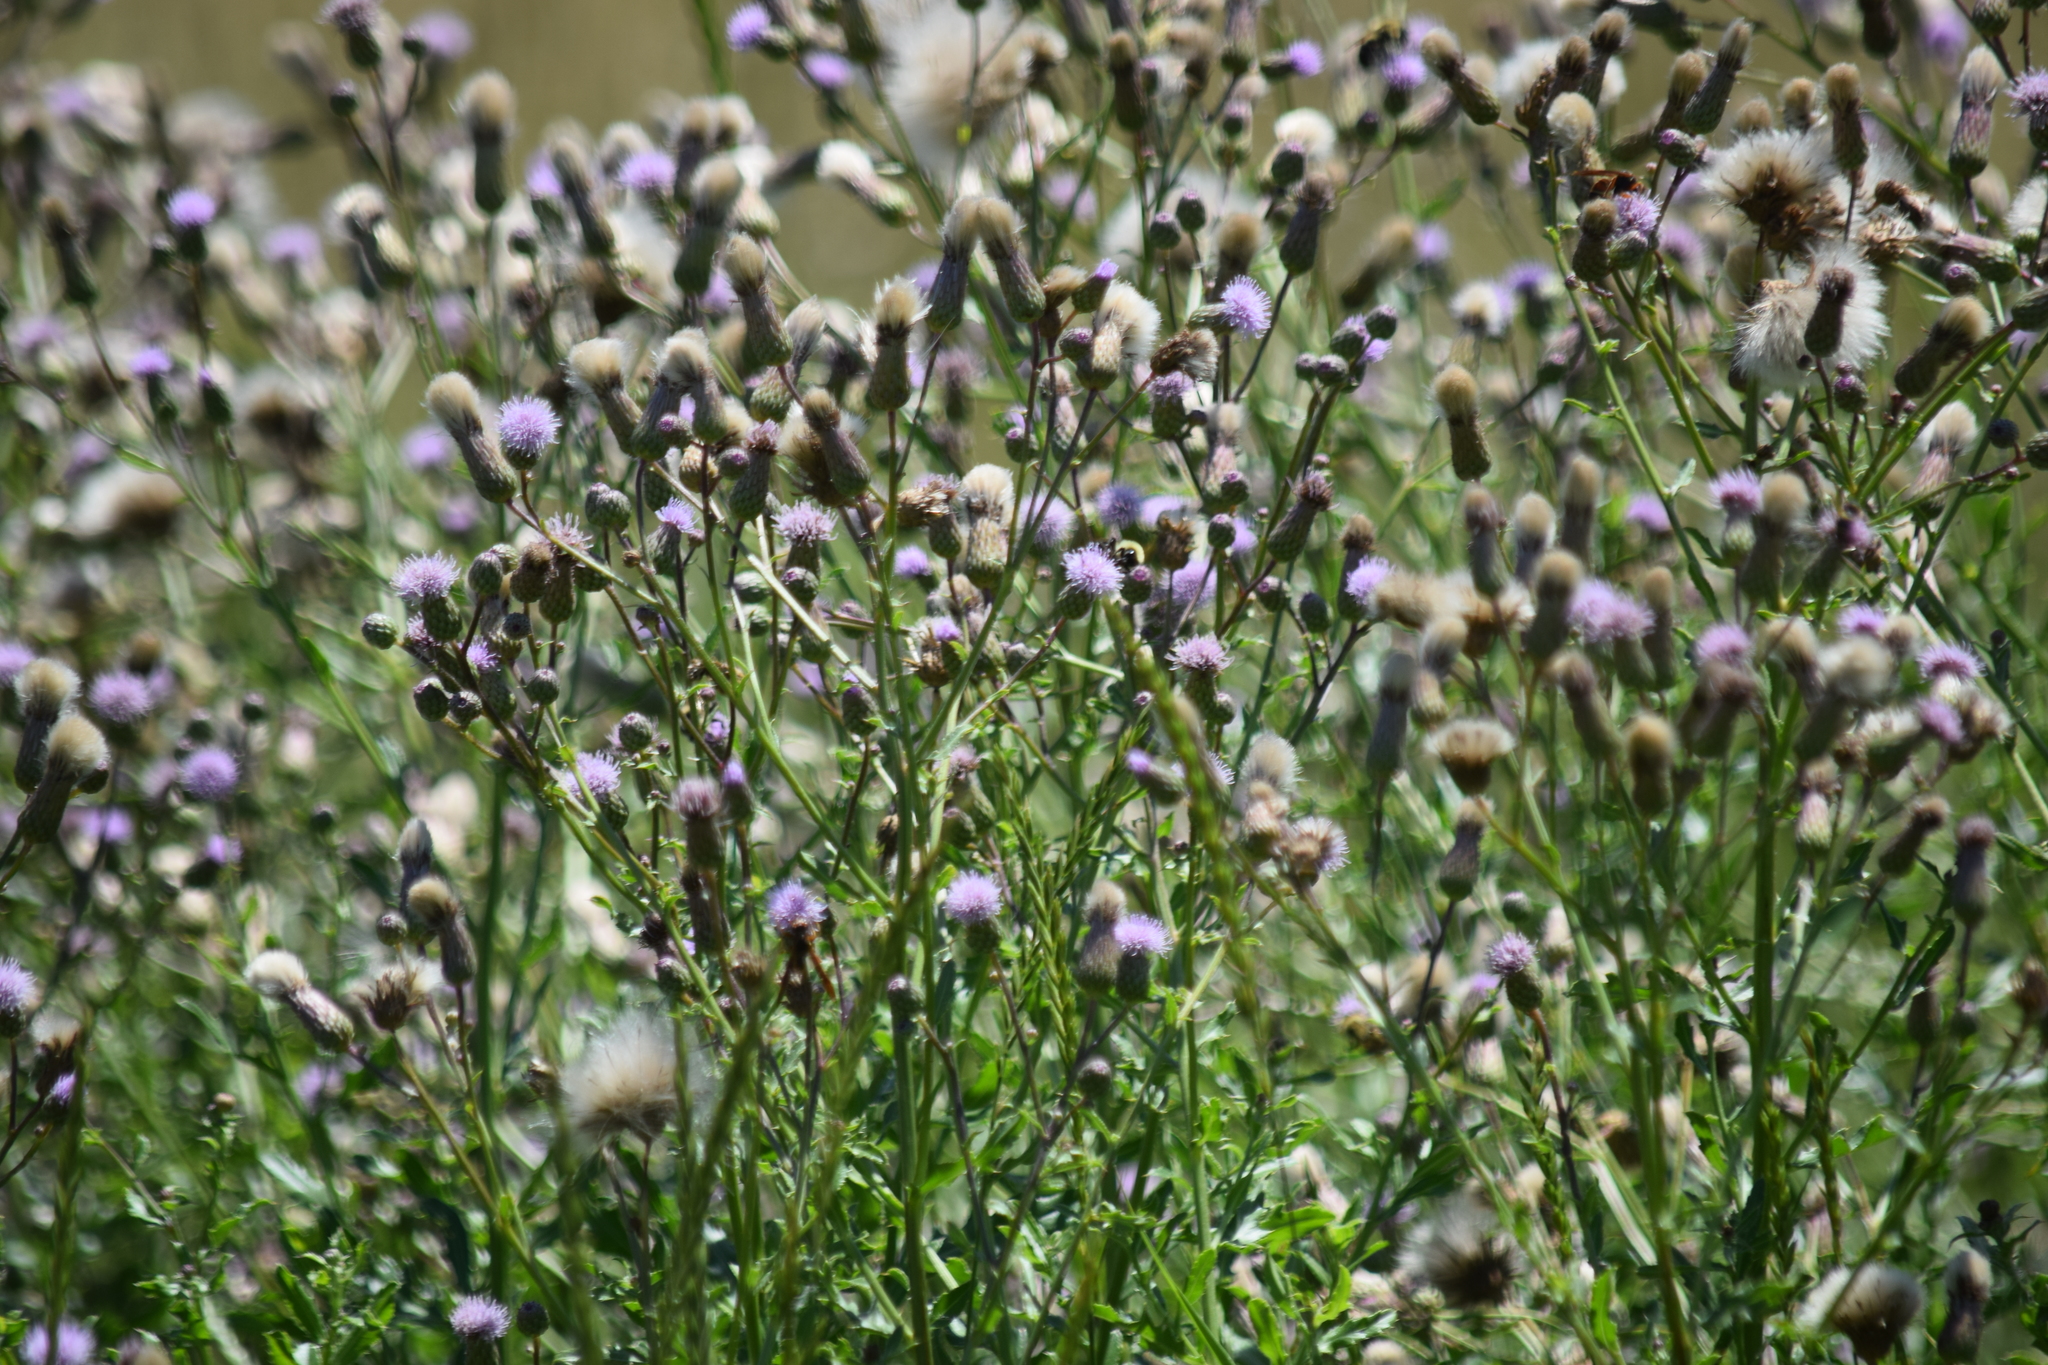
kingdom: Plantae
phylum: Tracheophyta
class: Magnoliopsida
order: Asterales
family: Asteraceae
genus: Cirsium
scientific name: Cirsium arvense
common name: Creeping thistle
